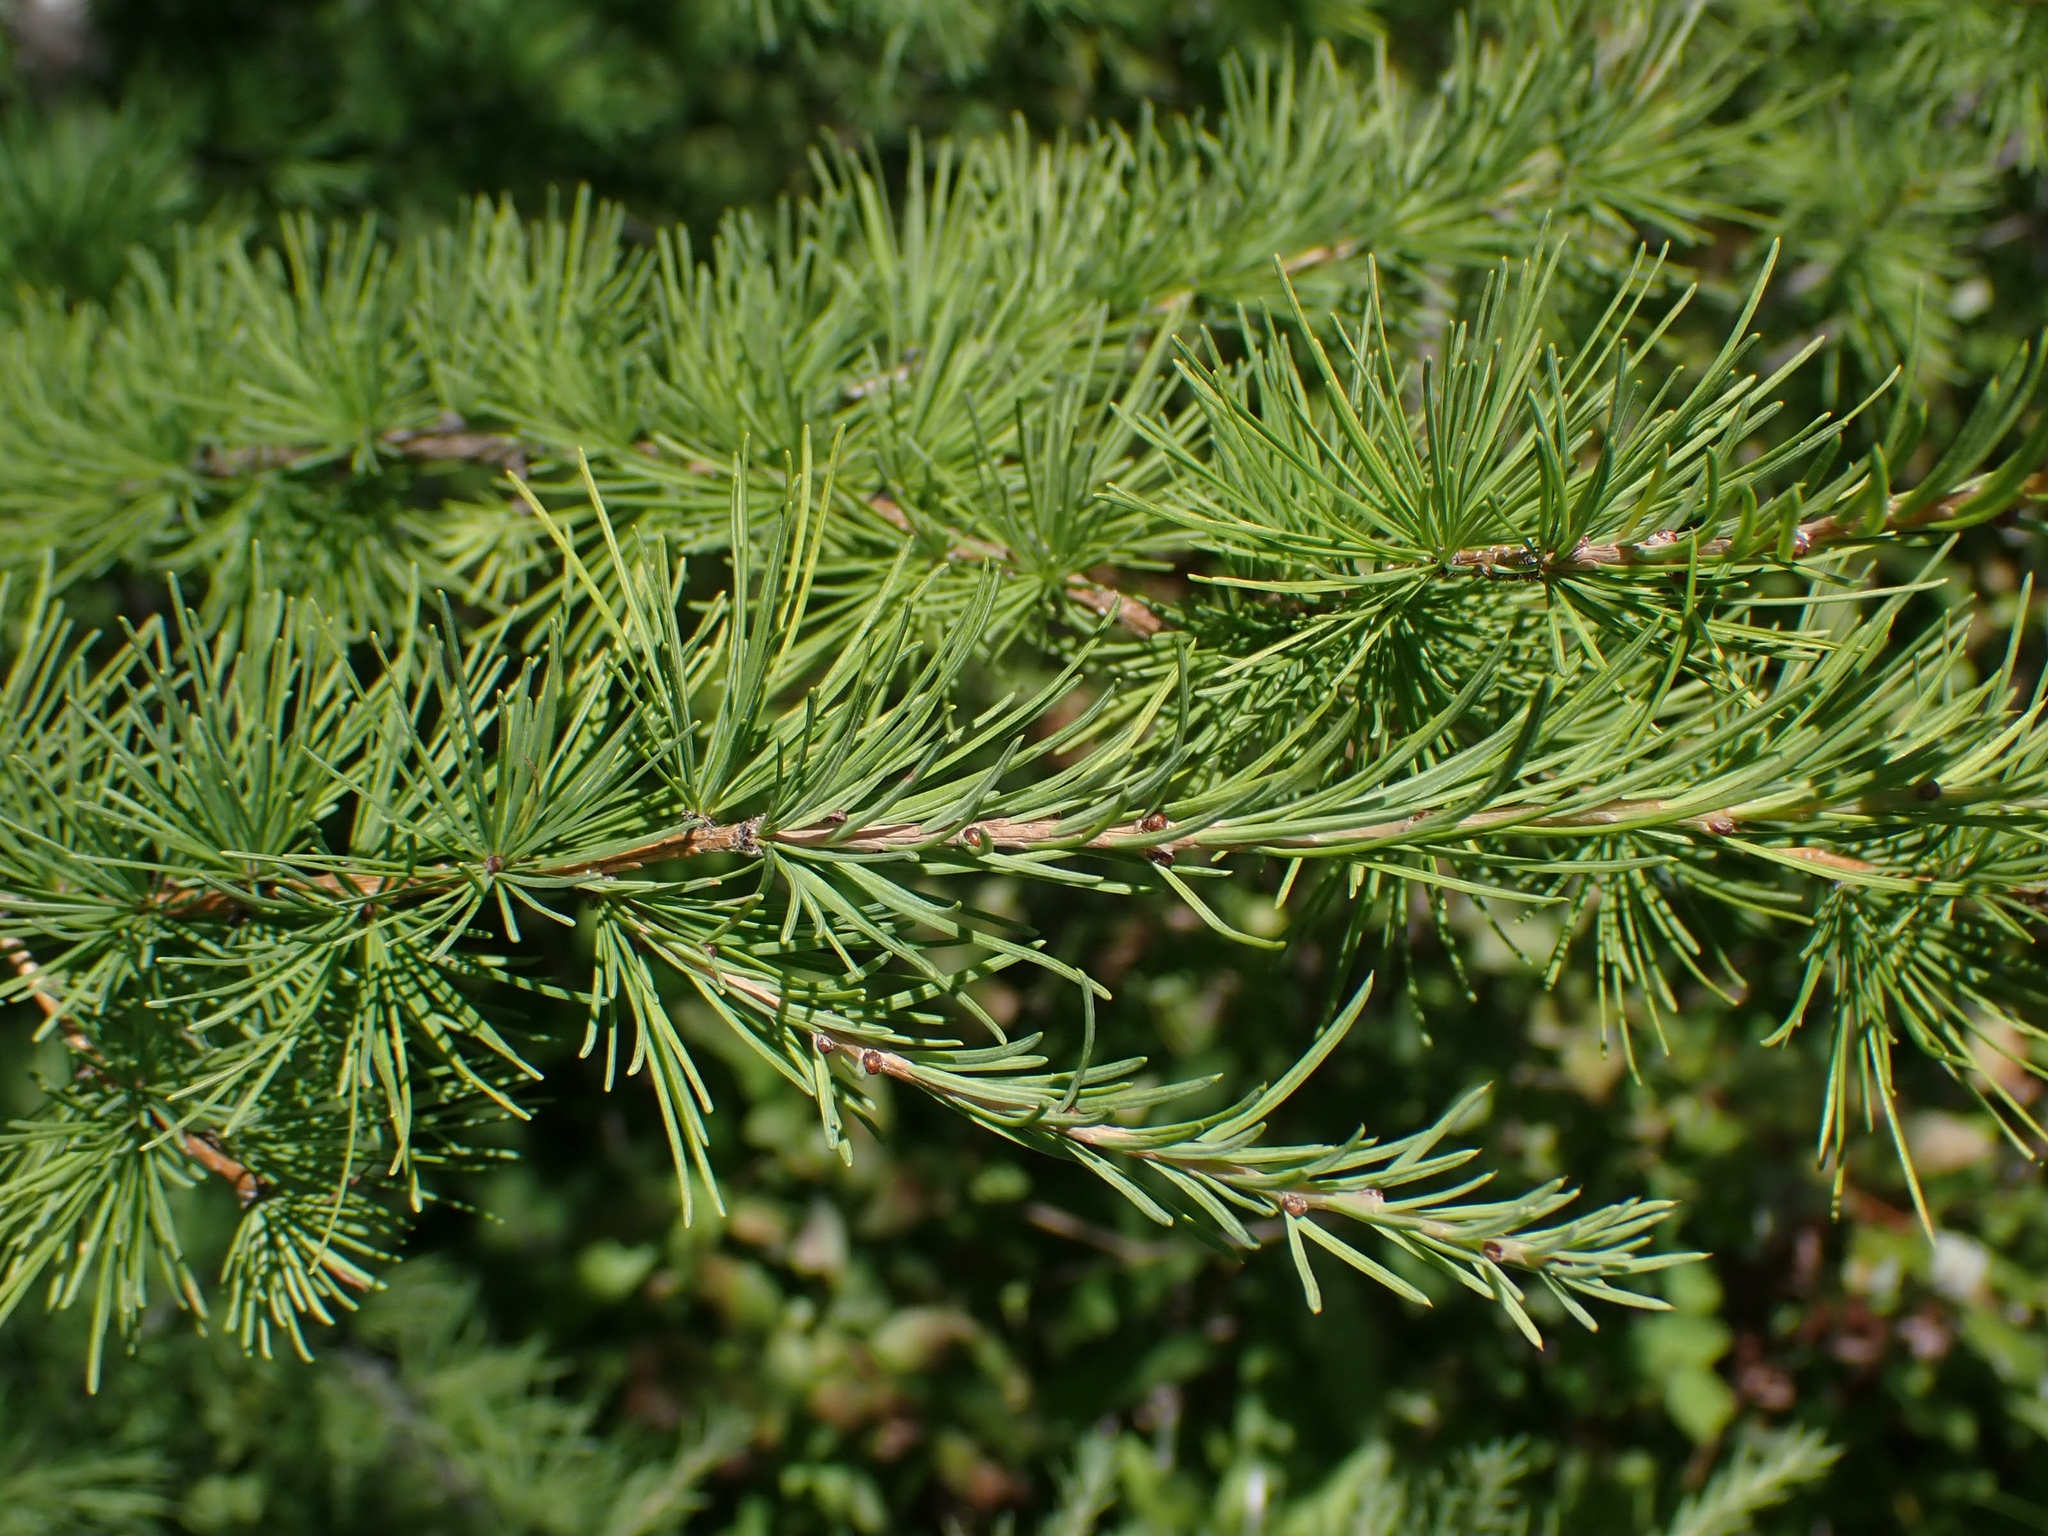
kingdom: Plantae
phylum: Tracheophyta
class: Pinopsida
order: Pinales
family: Pinaceae
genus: Larix
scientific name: Larix laricina
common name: American larch
